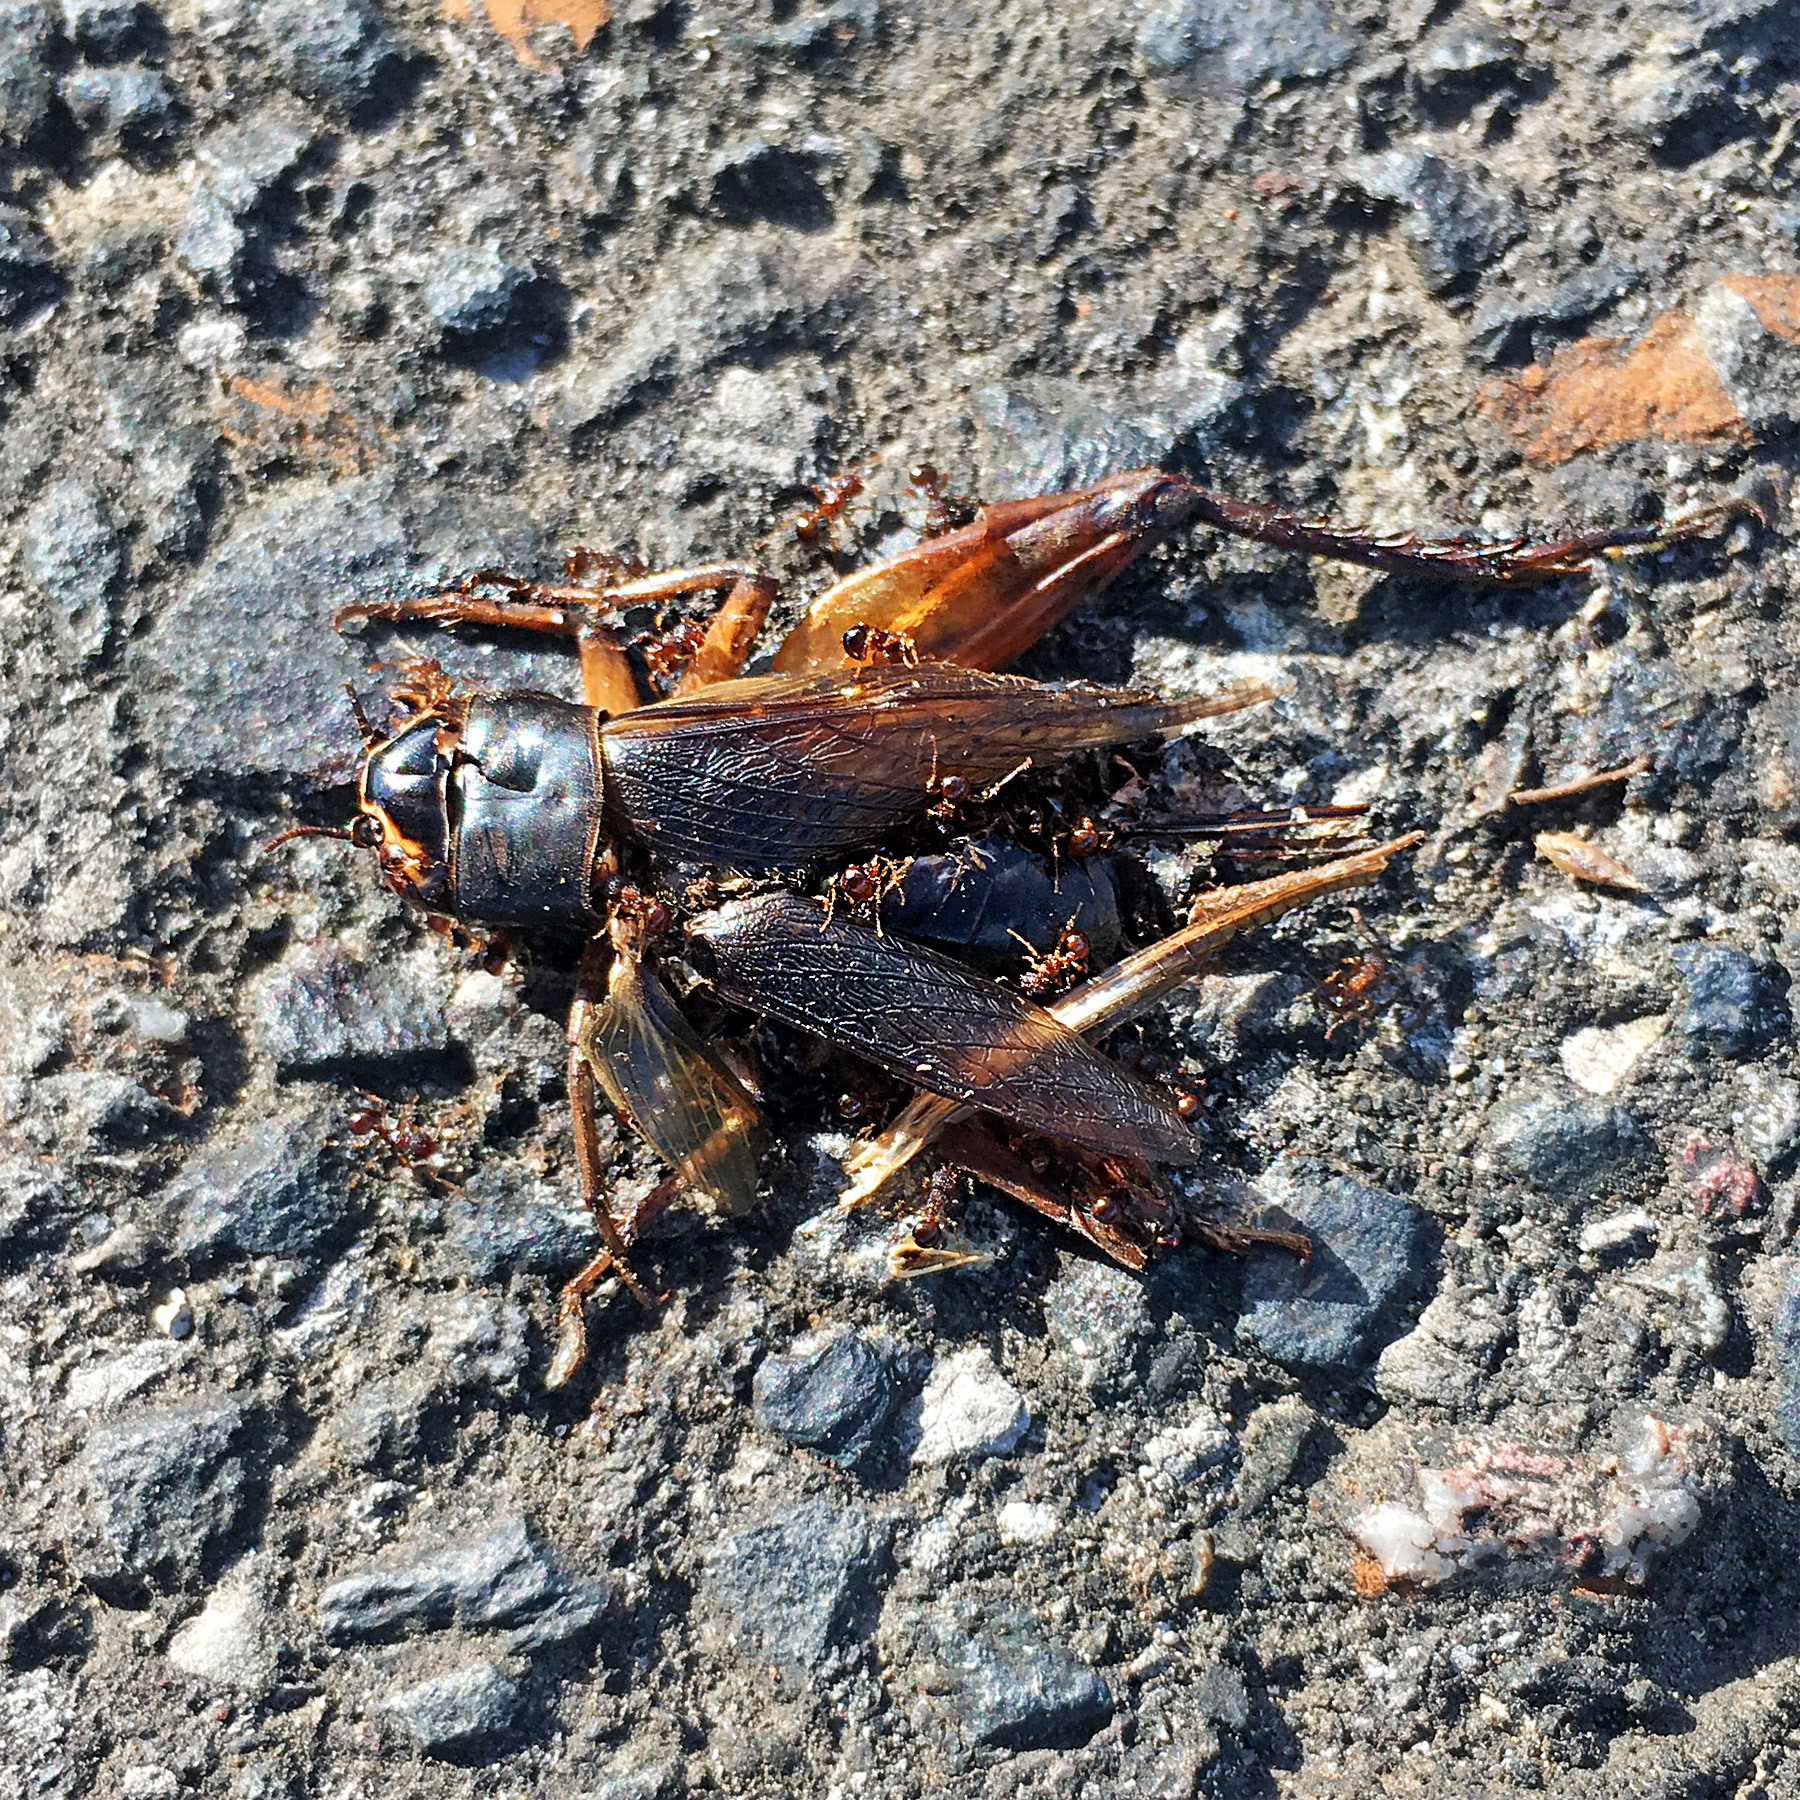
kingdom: Animalia
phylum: Arthropoda
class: Insecta
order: Hymenoptera
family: Formicidae
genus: Pristomyrmex
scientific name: Pristomyrmex punctatus
